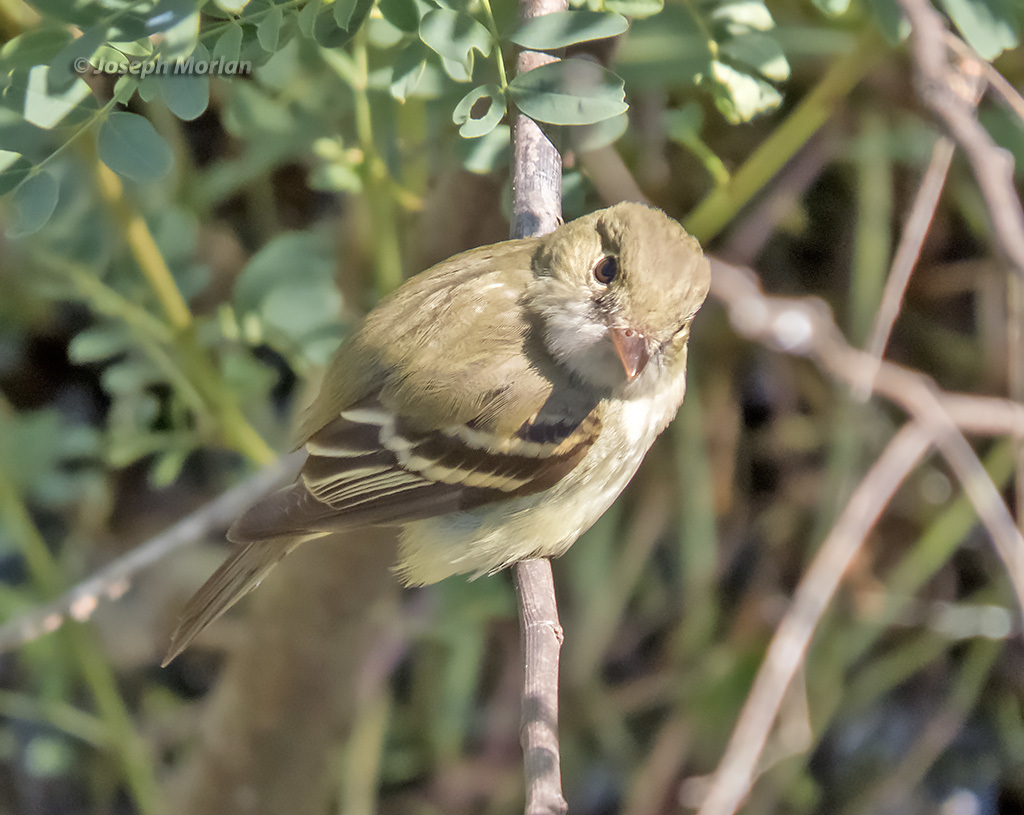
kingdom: Animalia
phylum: Chordata
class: Aves
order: Passeriformes
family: Tyrannidae
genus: Empidonax
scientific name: Empidonax virescens
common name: Acadian flycatcher
